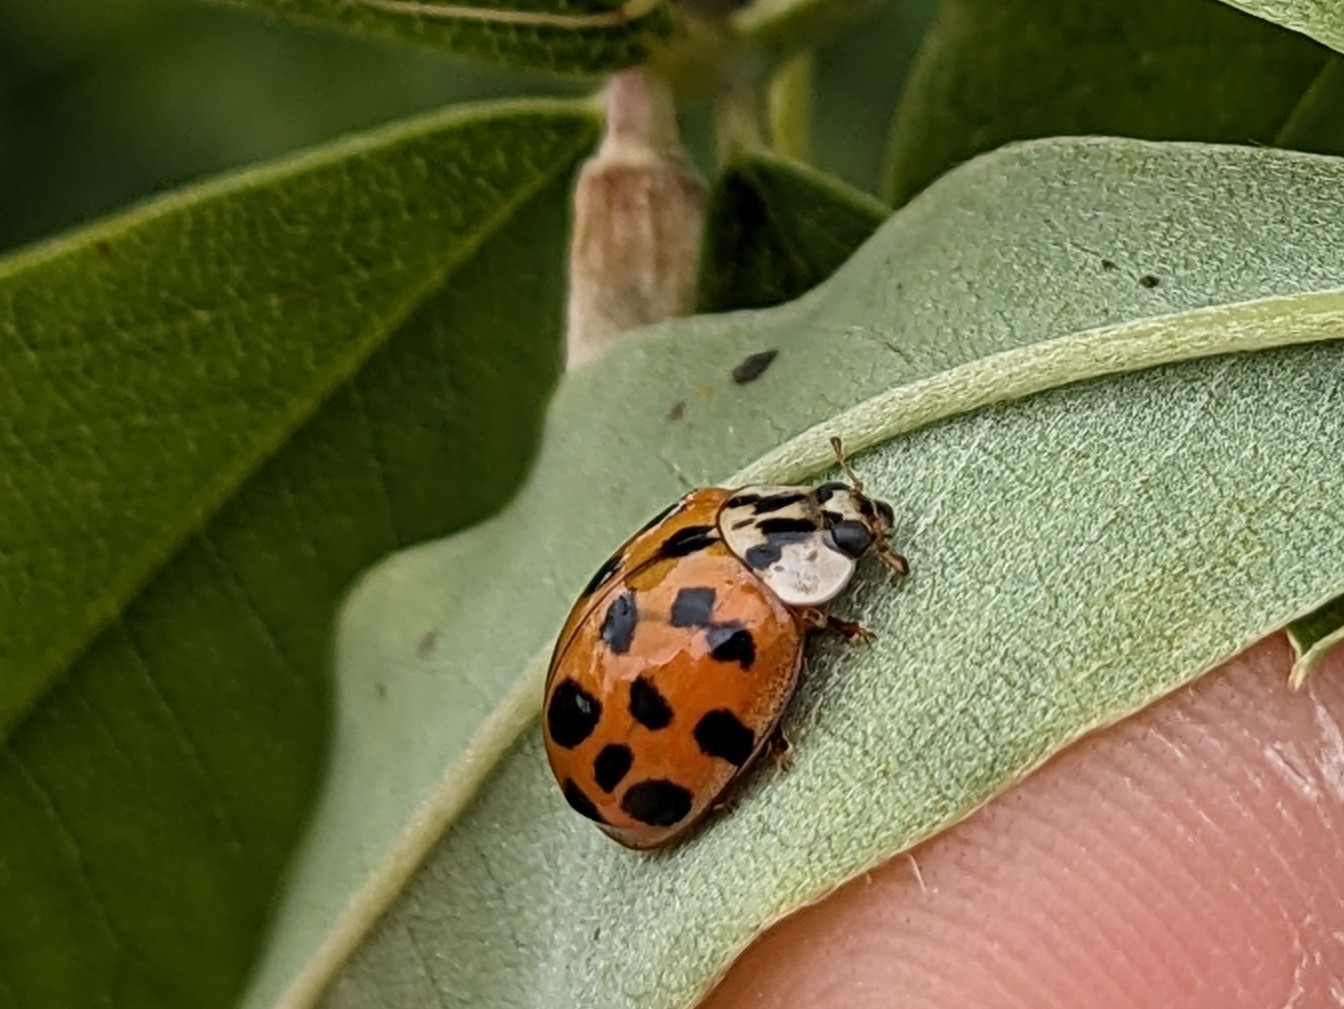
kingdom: Animalia
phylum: Arthropoda
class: Insecta
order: Coleoptera
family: Coccinellidae
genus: Harmonia
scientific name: Harmonia axyridis
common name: Harlequin ladybird
